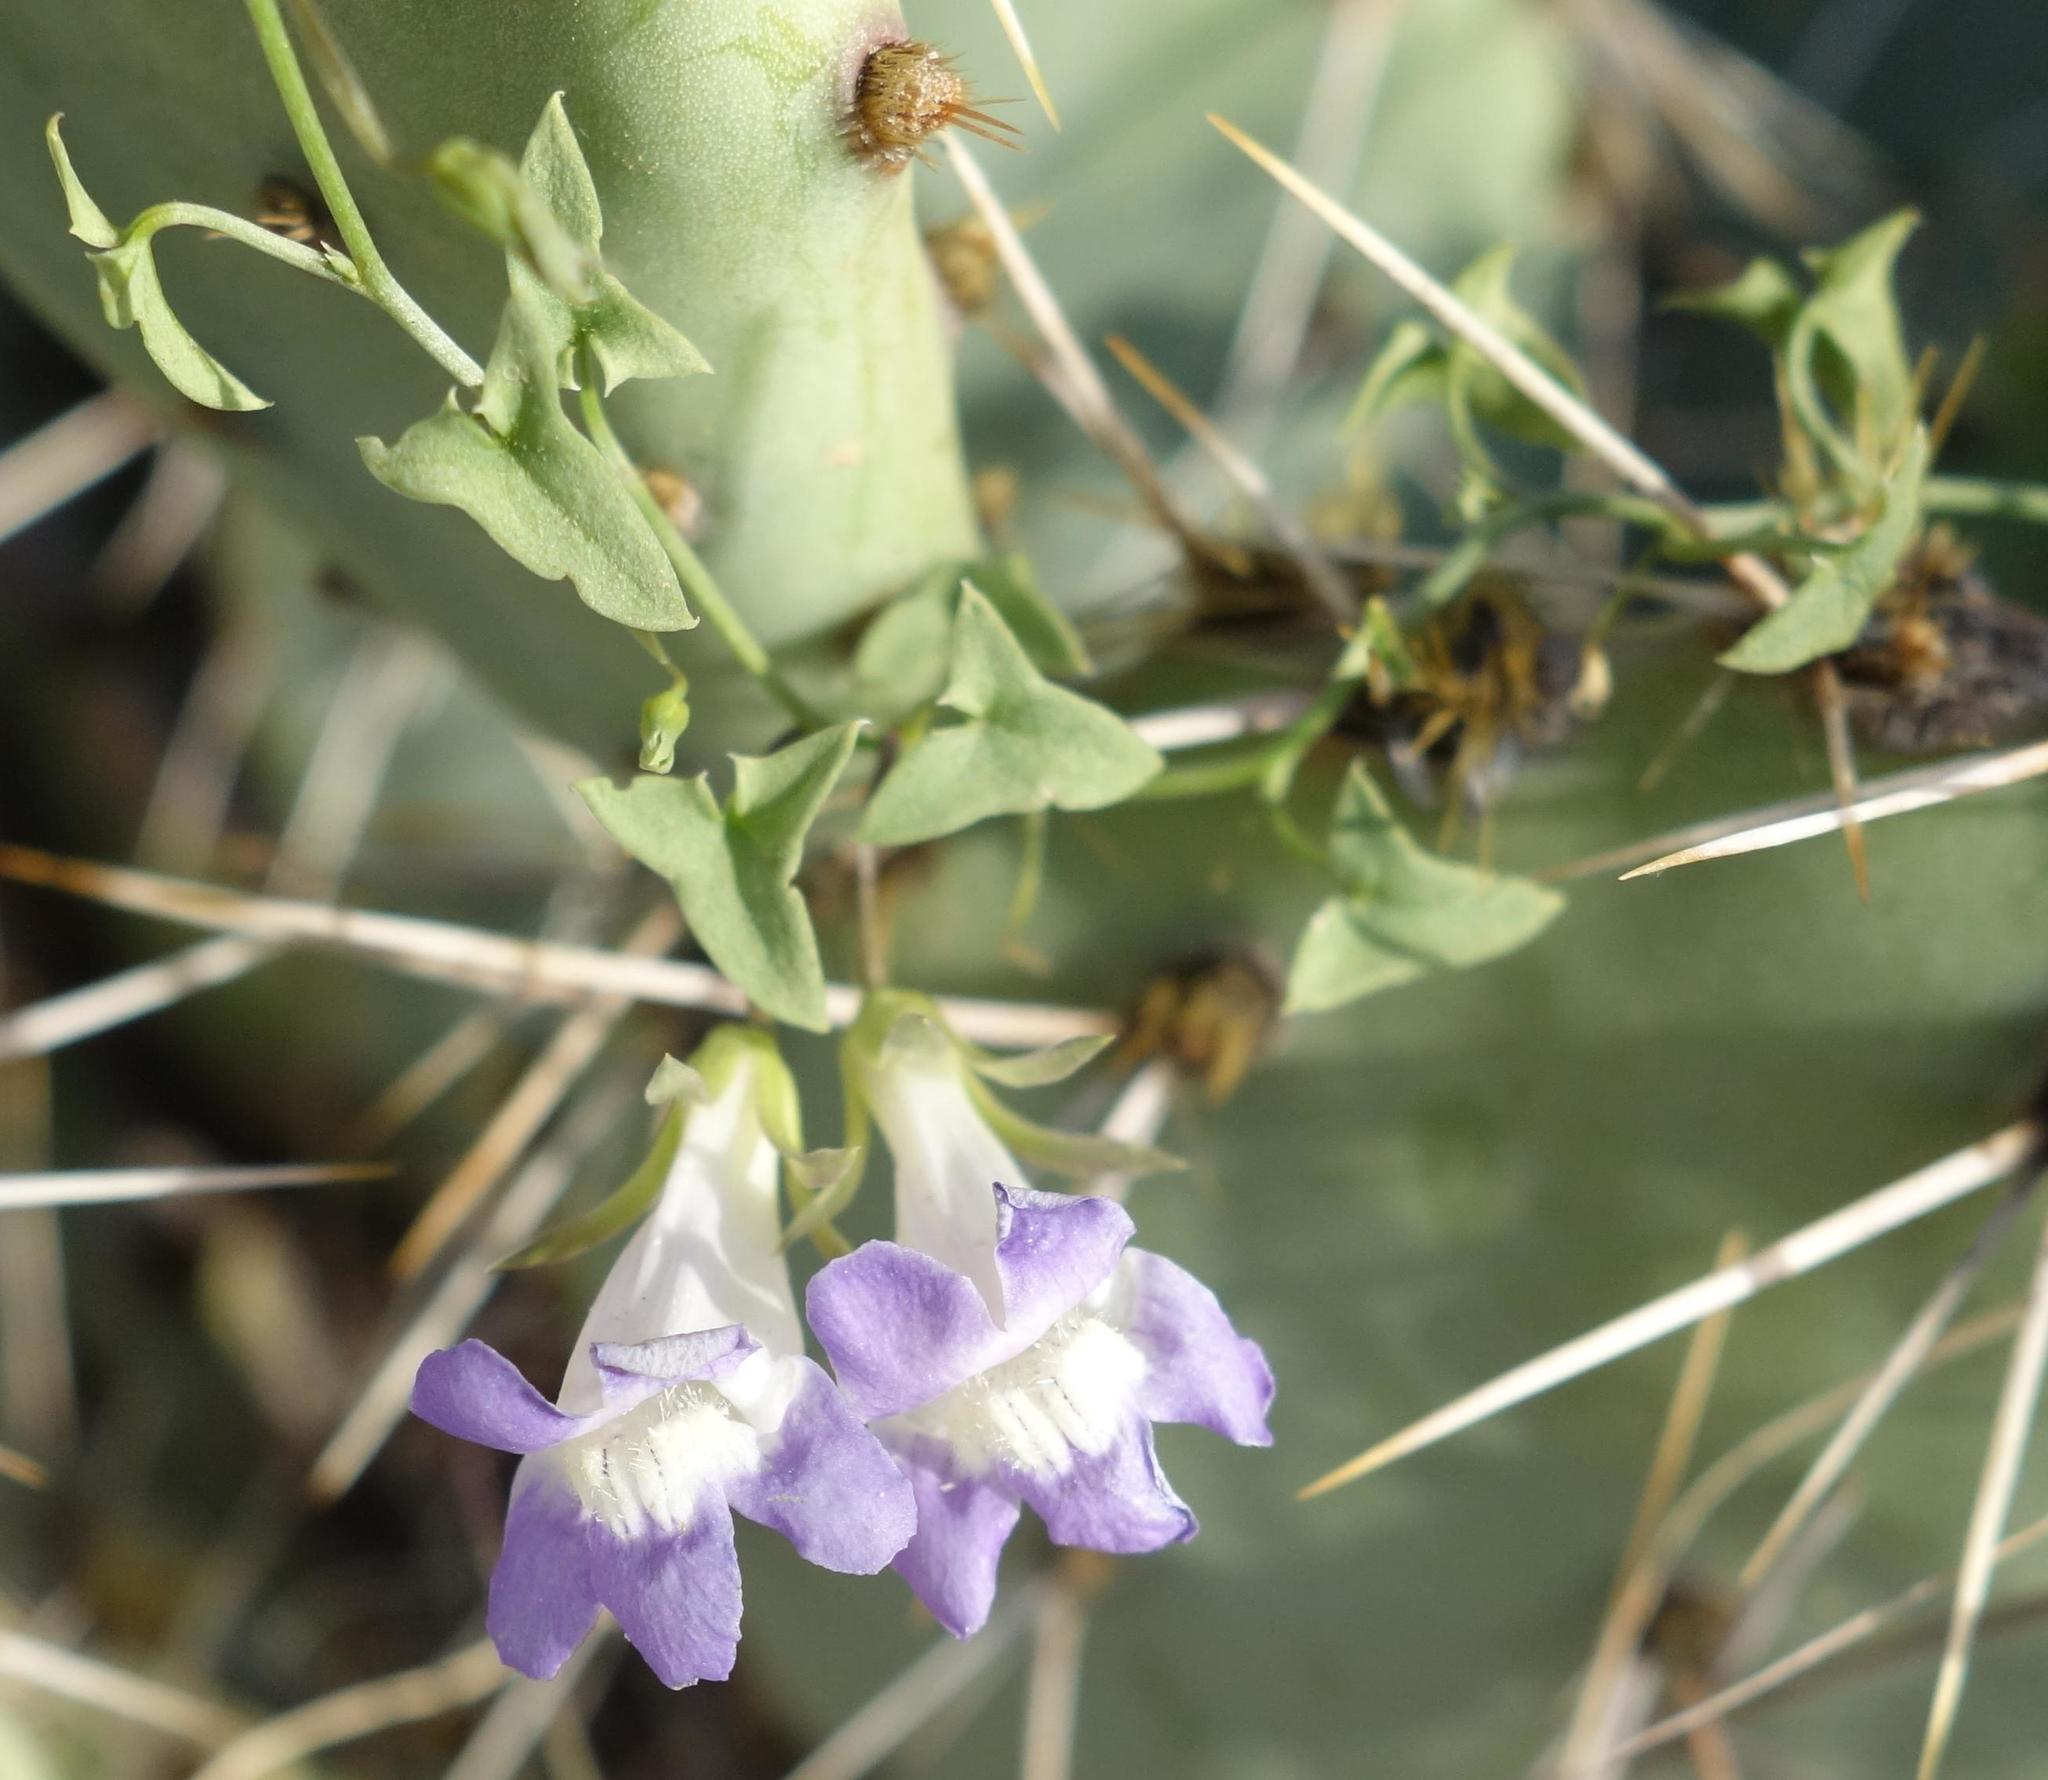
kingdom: Plantae
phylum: Tracheophyta
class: Magnoliopsida
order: Lamiales
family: Plantaginaceae
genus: Maurandella
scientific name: Maurandella antirrhiniflora
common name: Violet twining-snapdragon
